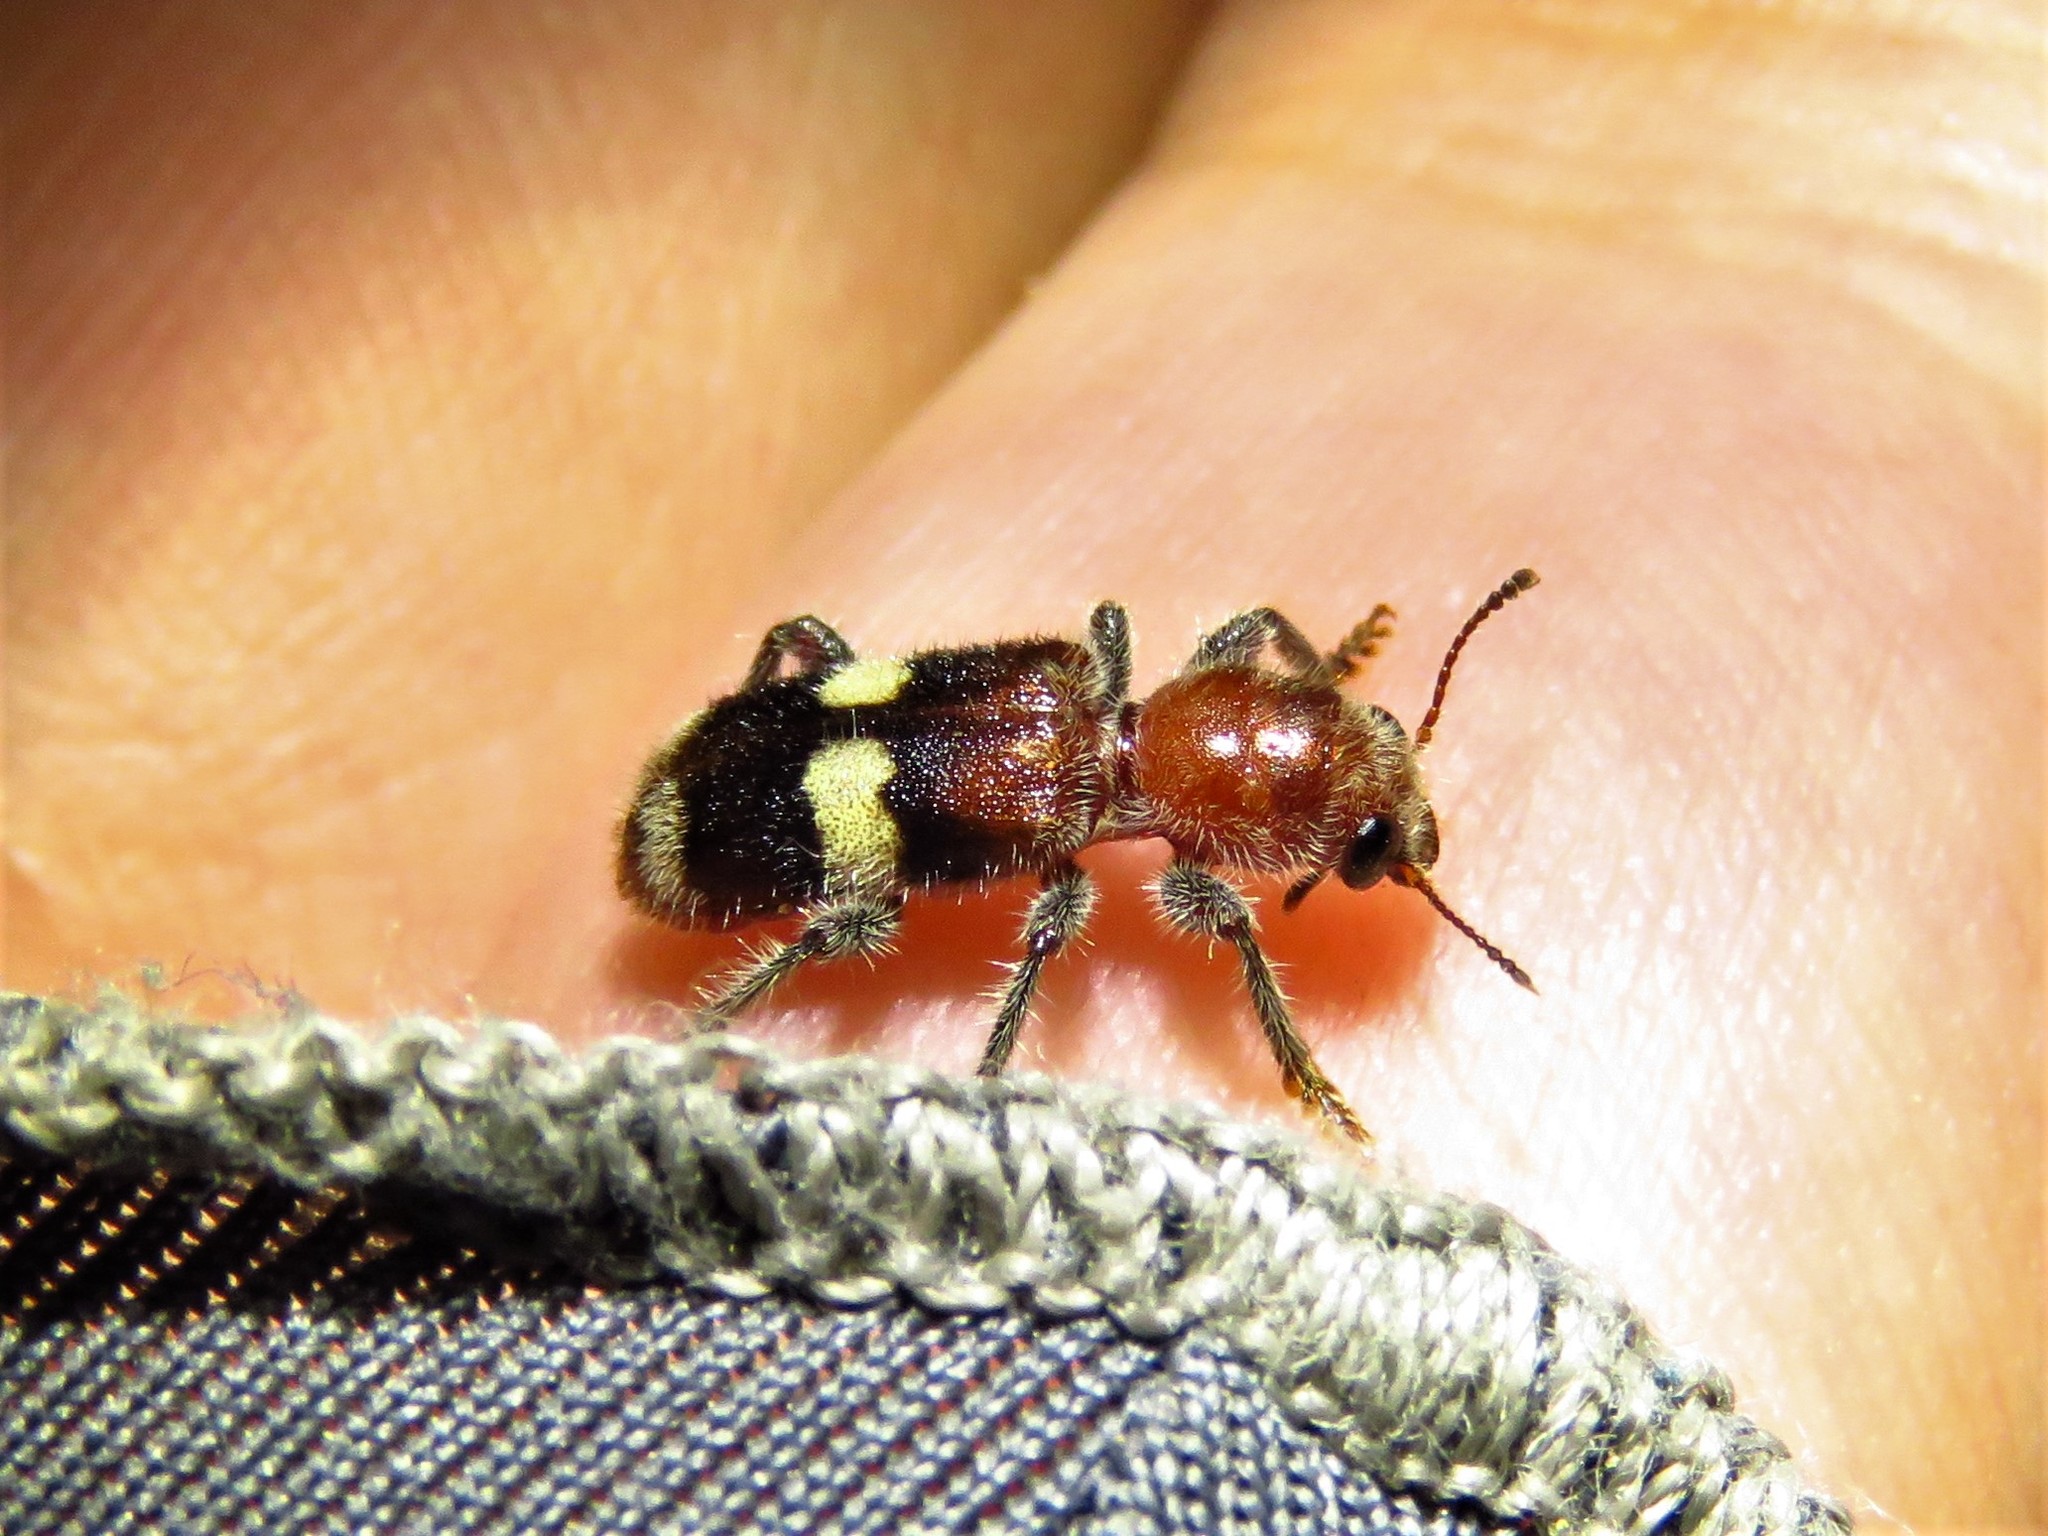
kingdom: Animalia
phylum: Arthropoda
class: Insecta
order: Coleoptera
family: Cleridae
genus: Enoclerus
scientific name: Enoclerus quadrisignatus
